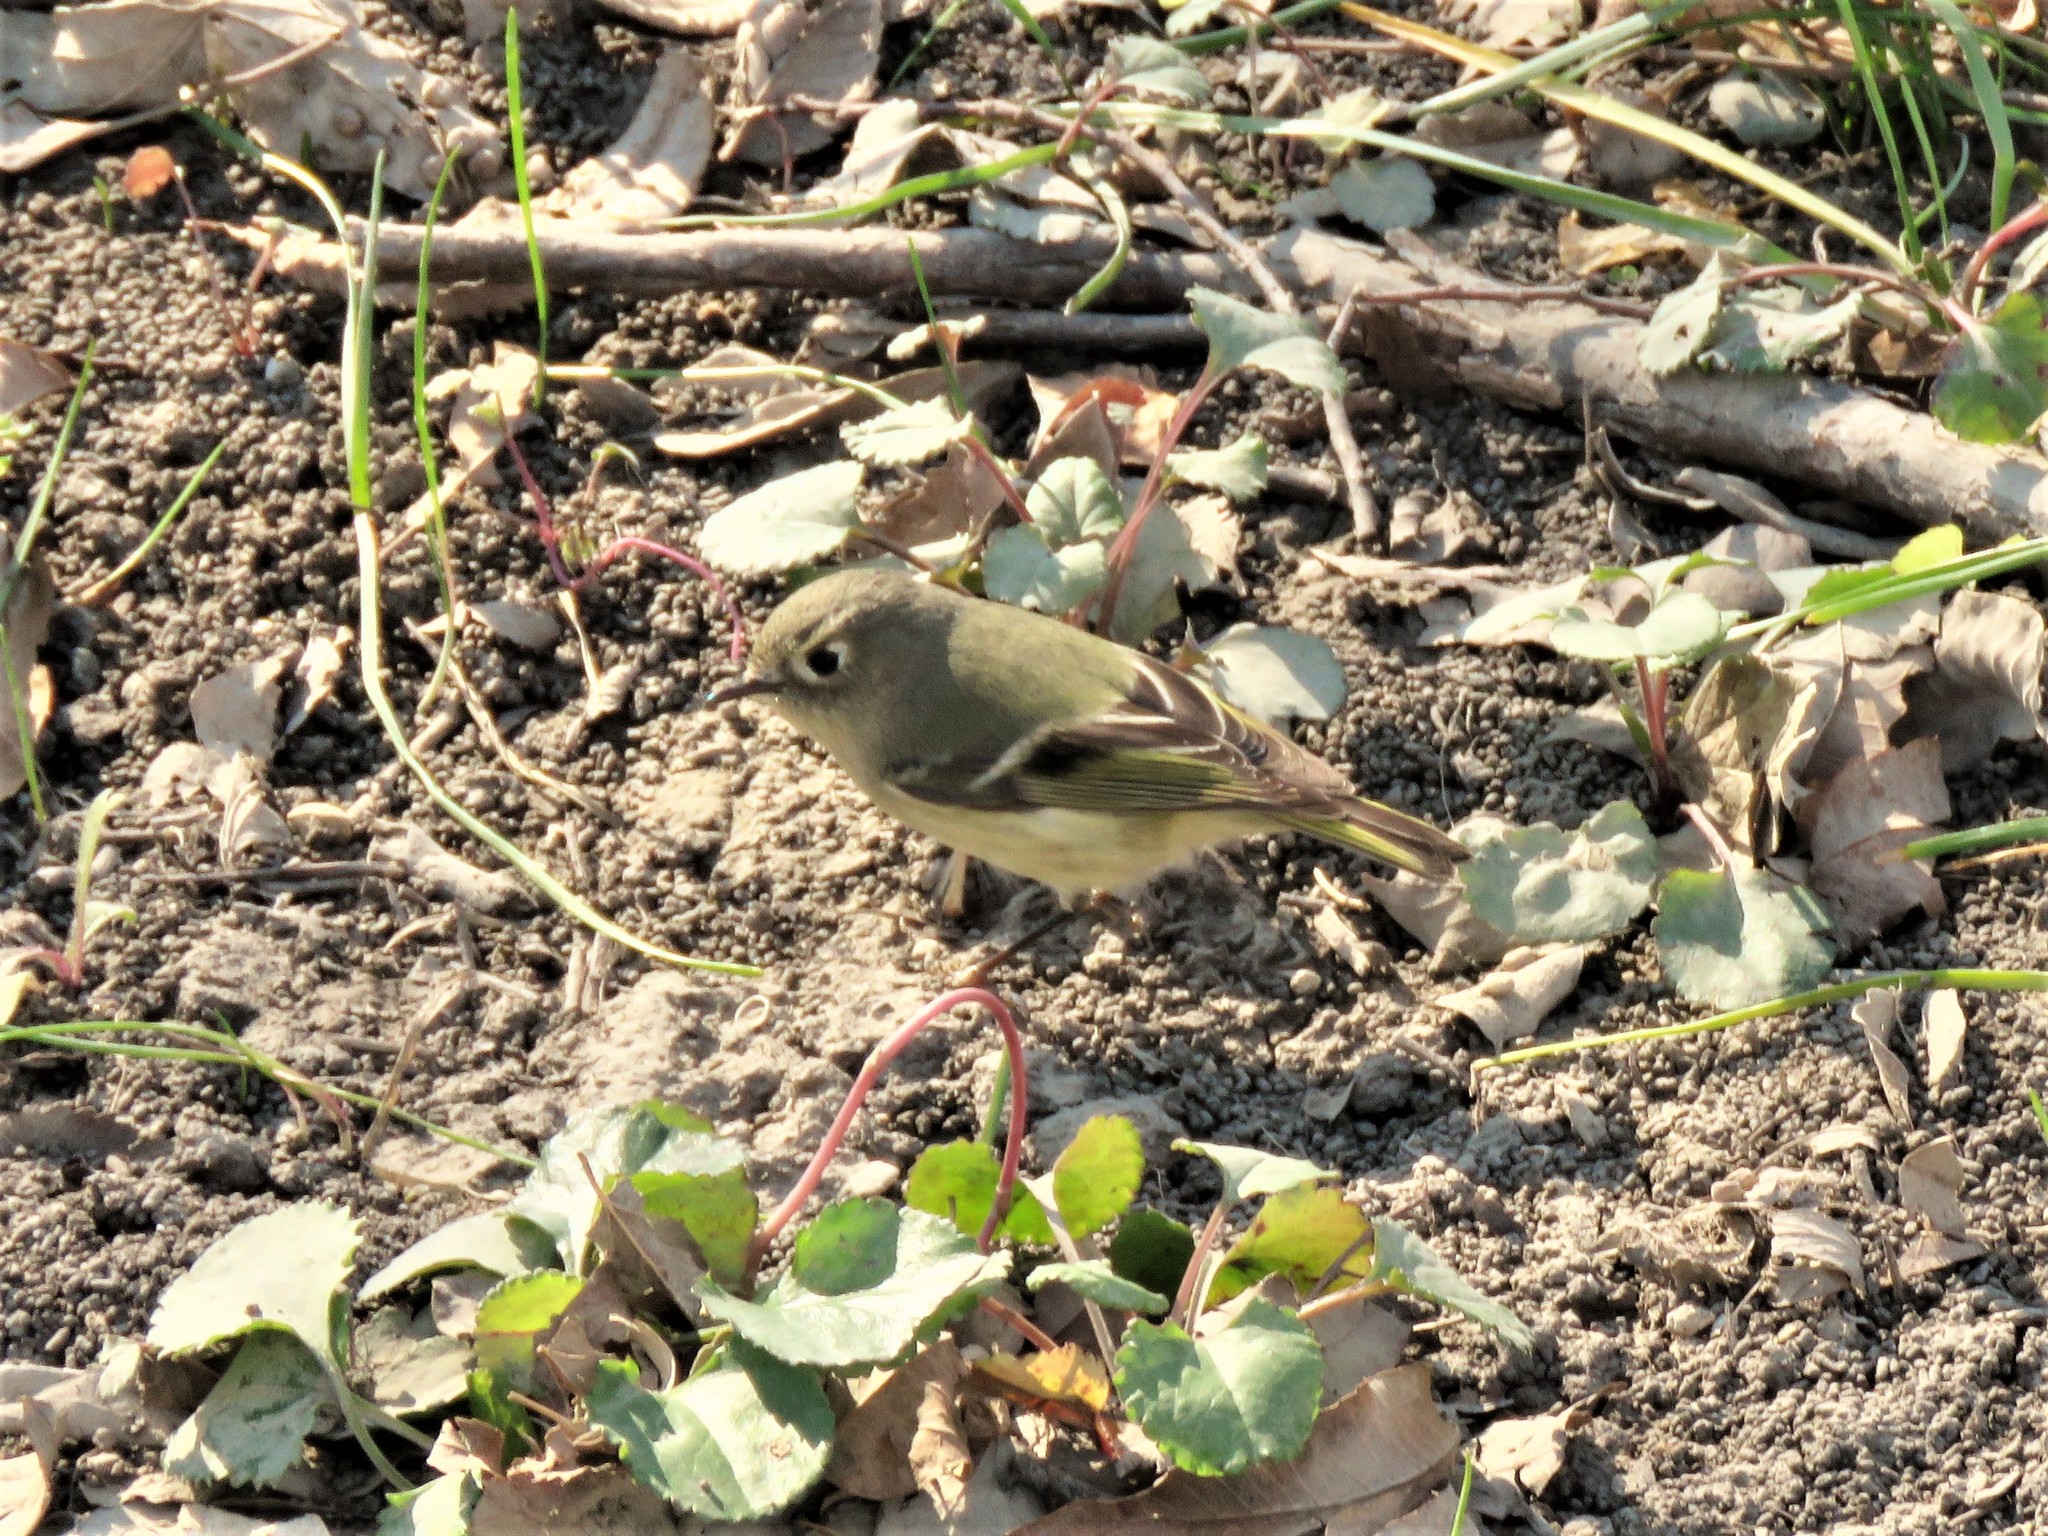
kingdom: Animalia
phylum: Chordata
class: Aves
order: Passeriformes
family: Regulidae
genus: Regulus
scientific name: Regulus calendula
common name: Ruby-crowned kinglet
